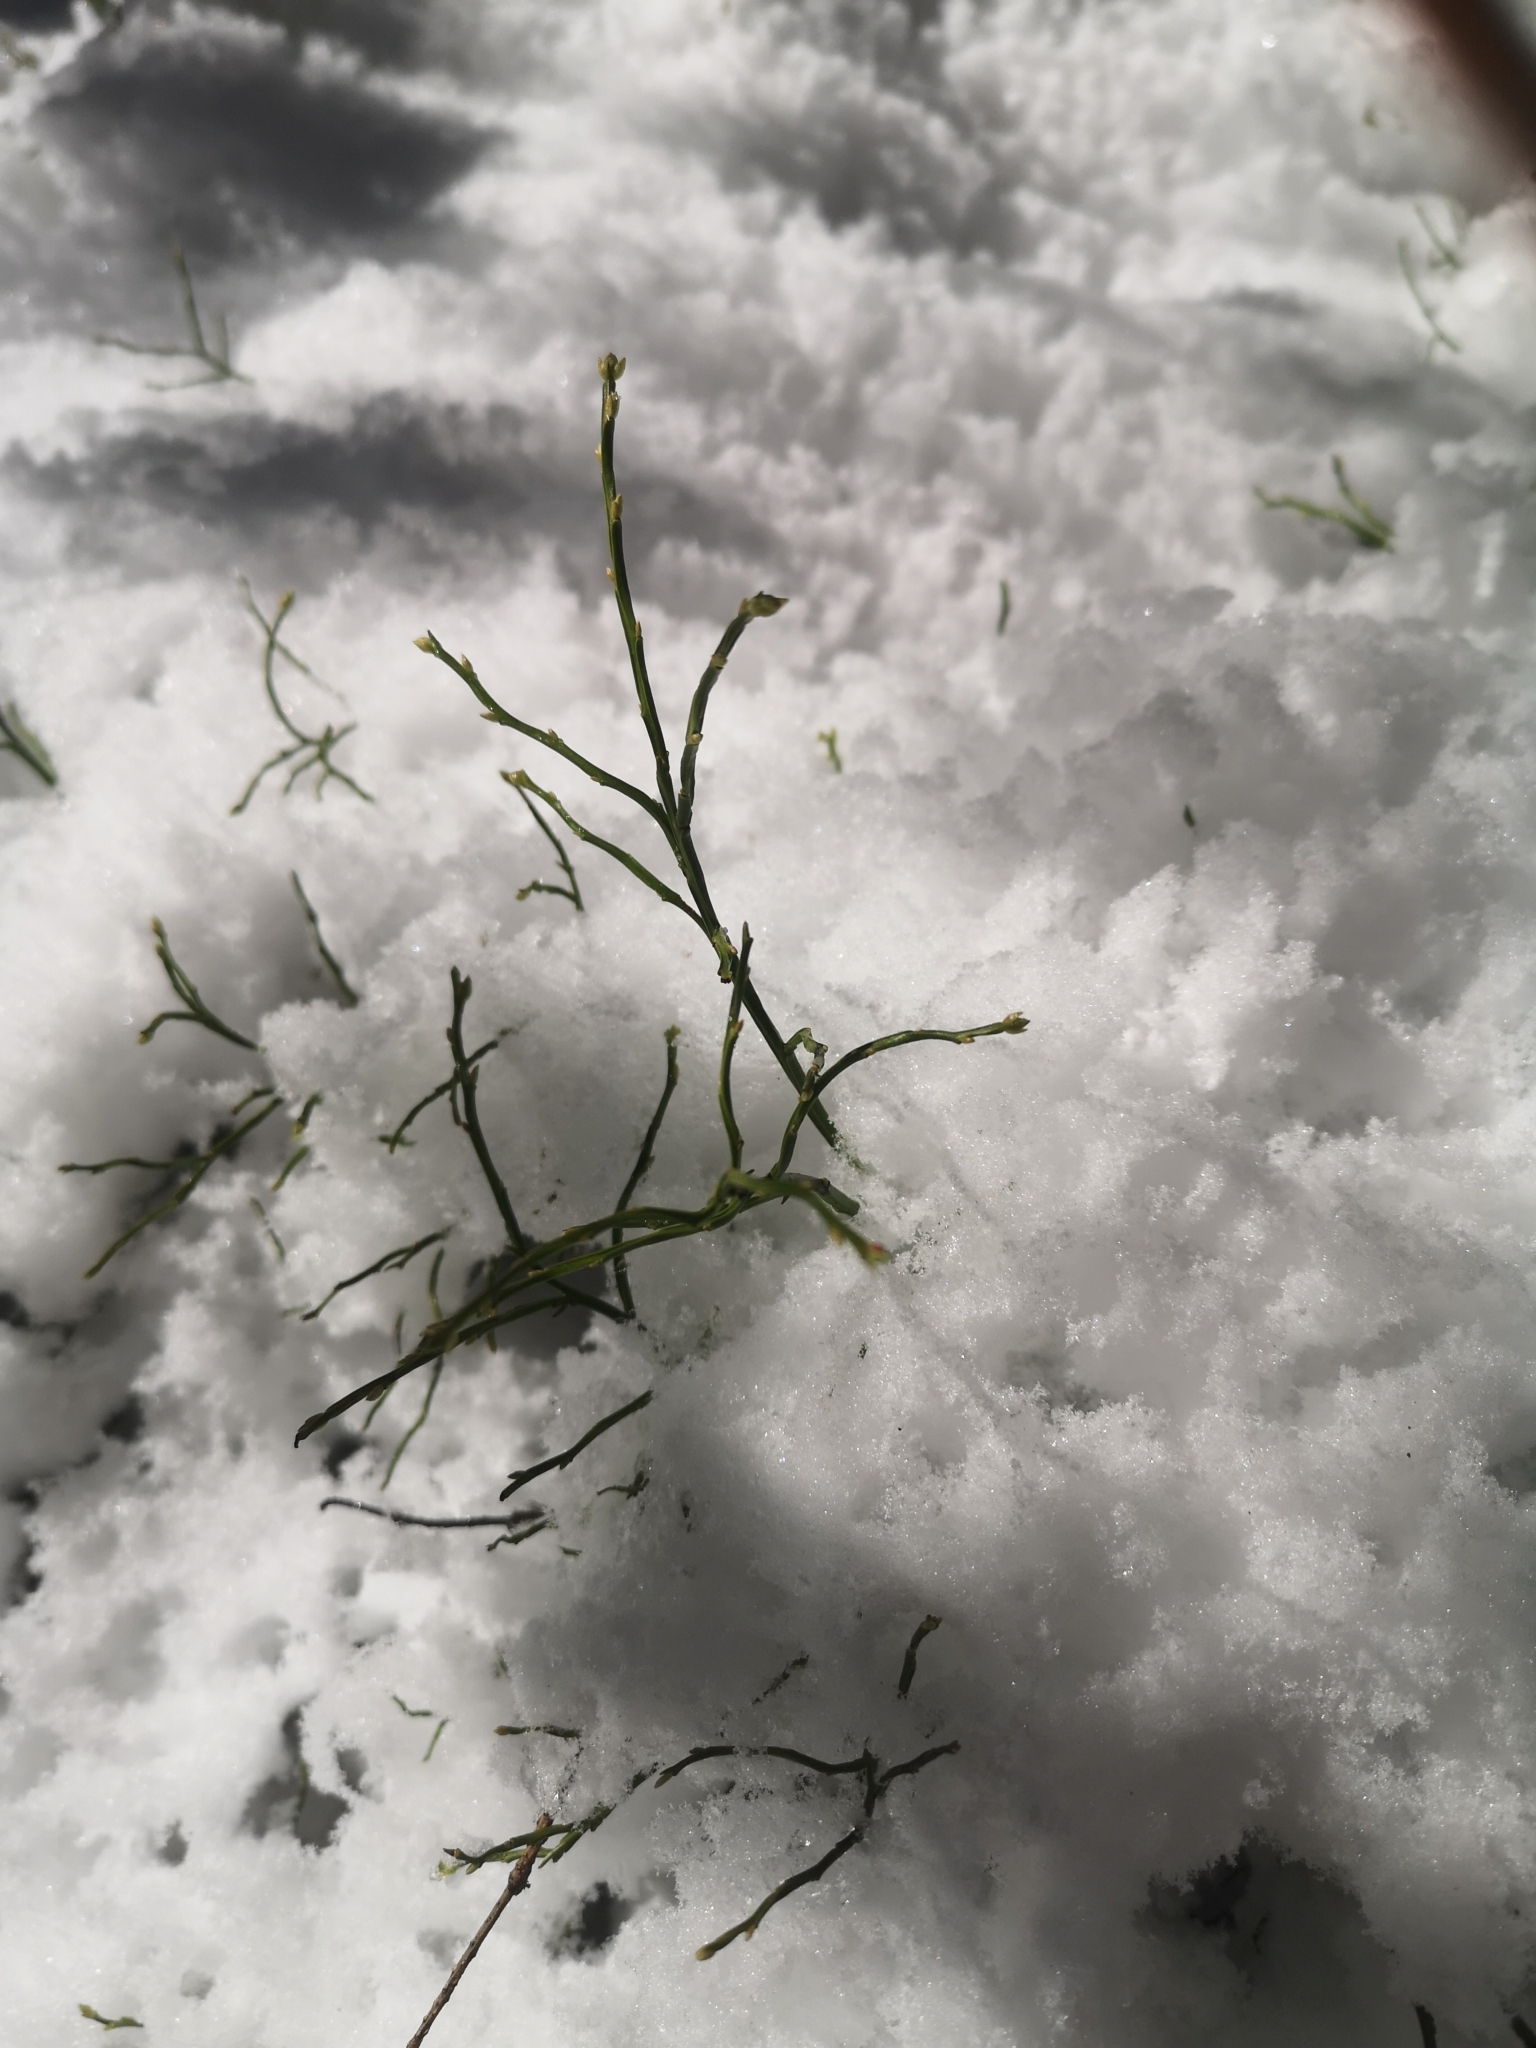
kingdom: Plantae
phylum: Tracheophyta
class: Magnoliopsida
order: Ericales
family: Ericaceae
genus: Vaccinium
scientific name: Vaccinium myrtillus
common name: Bilberry
